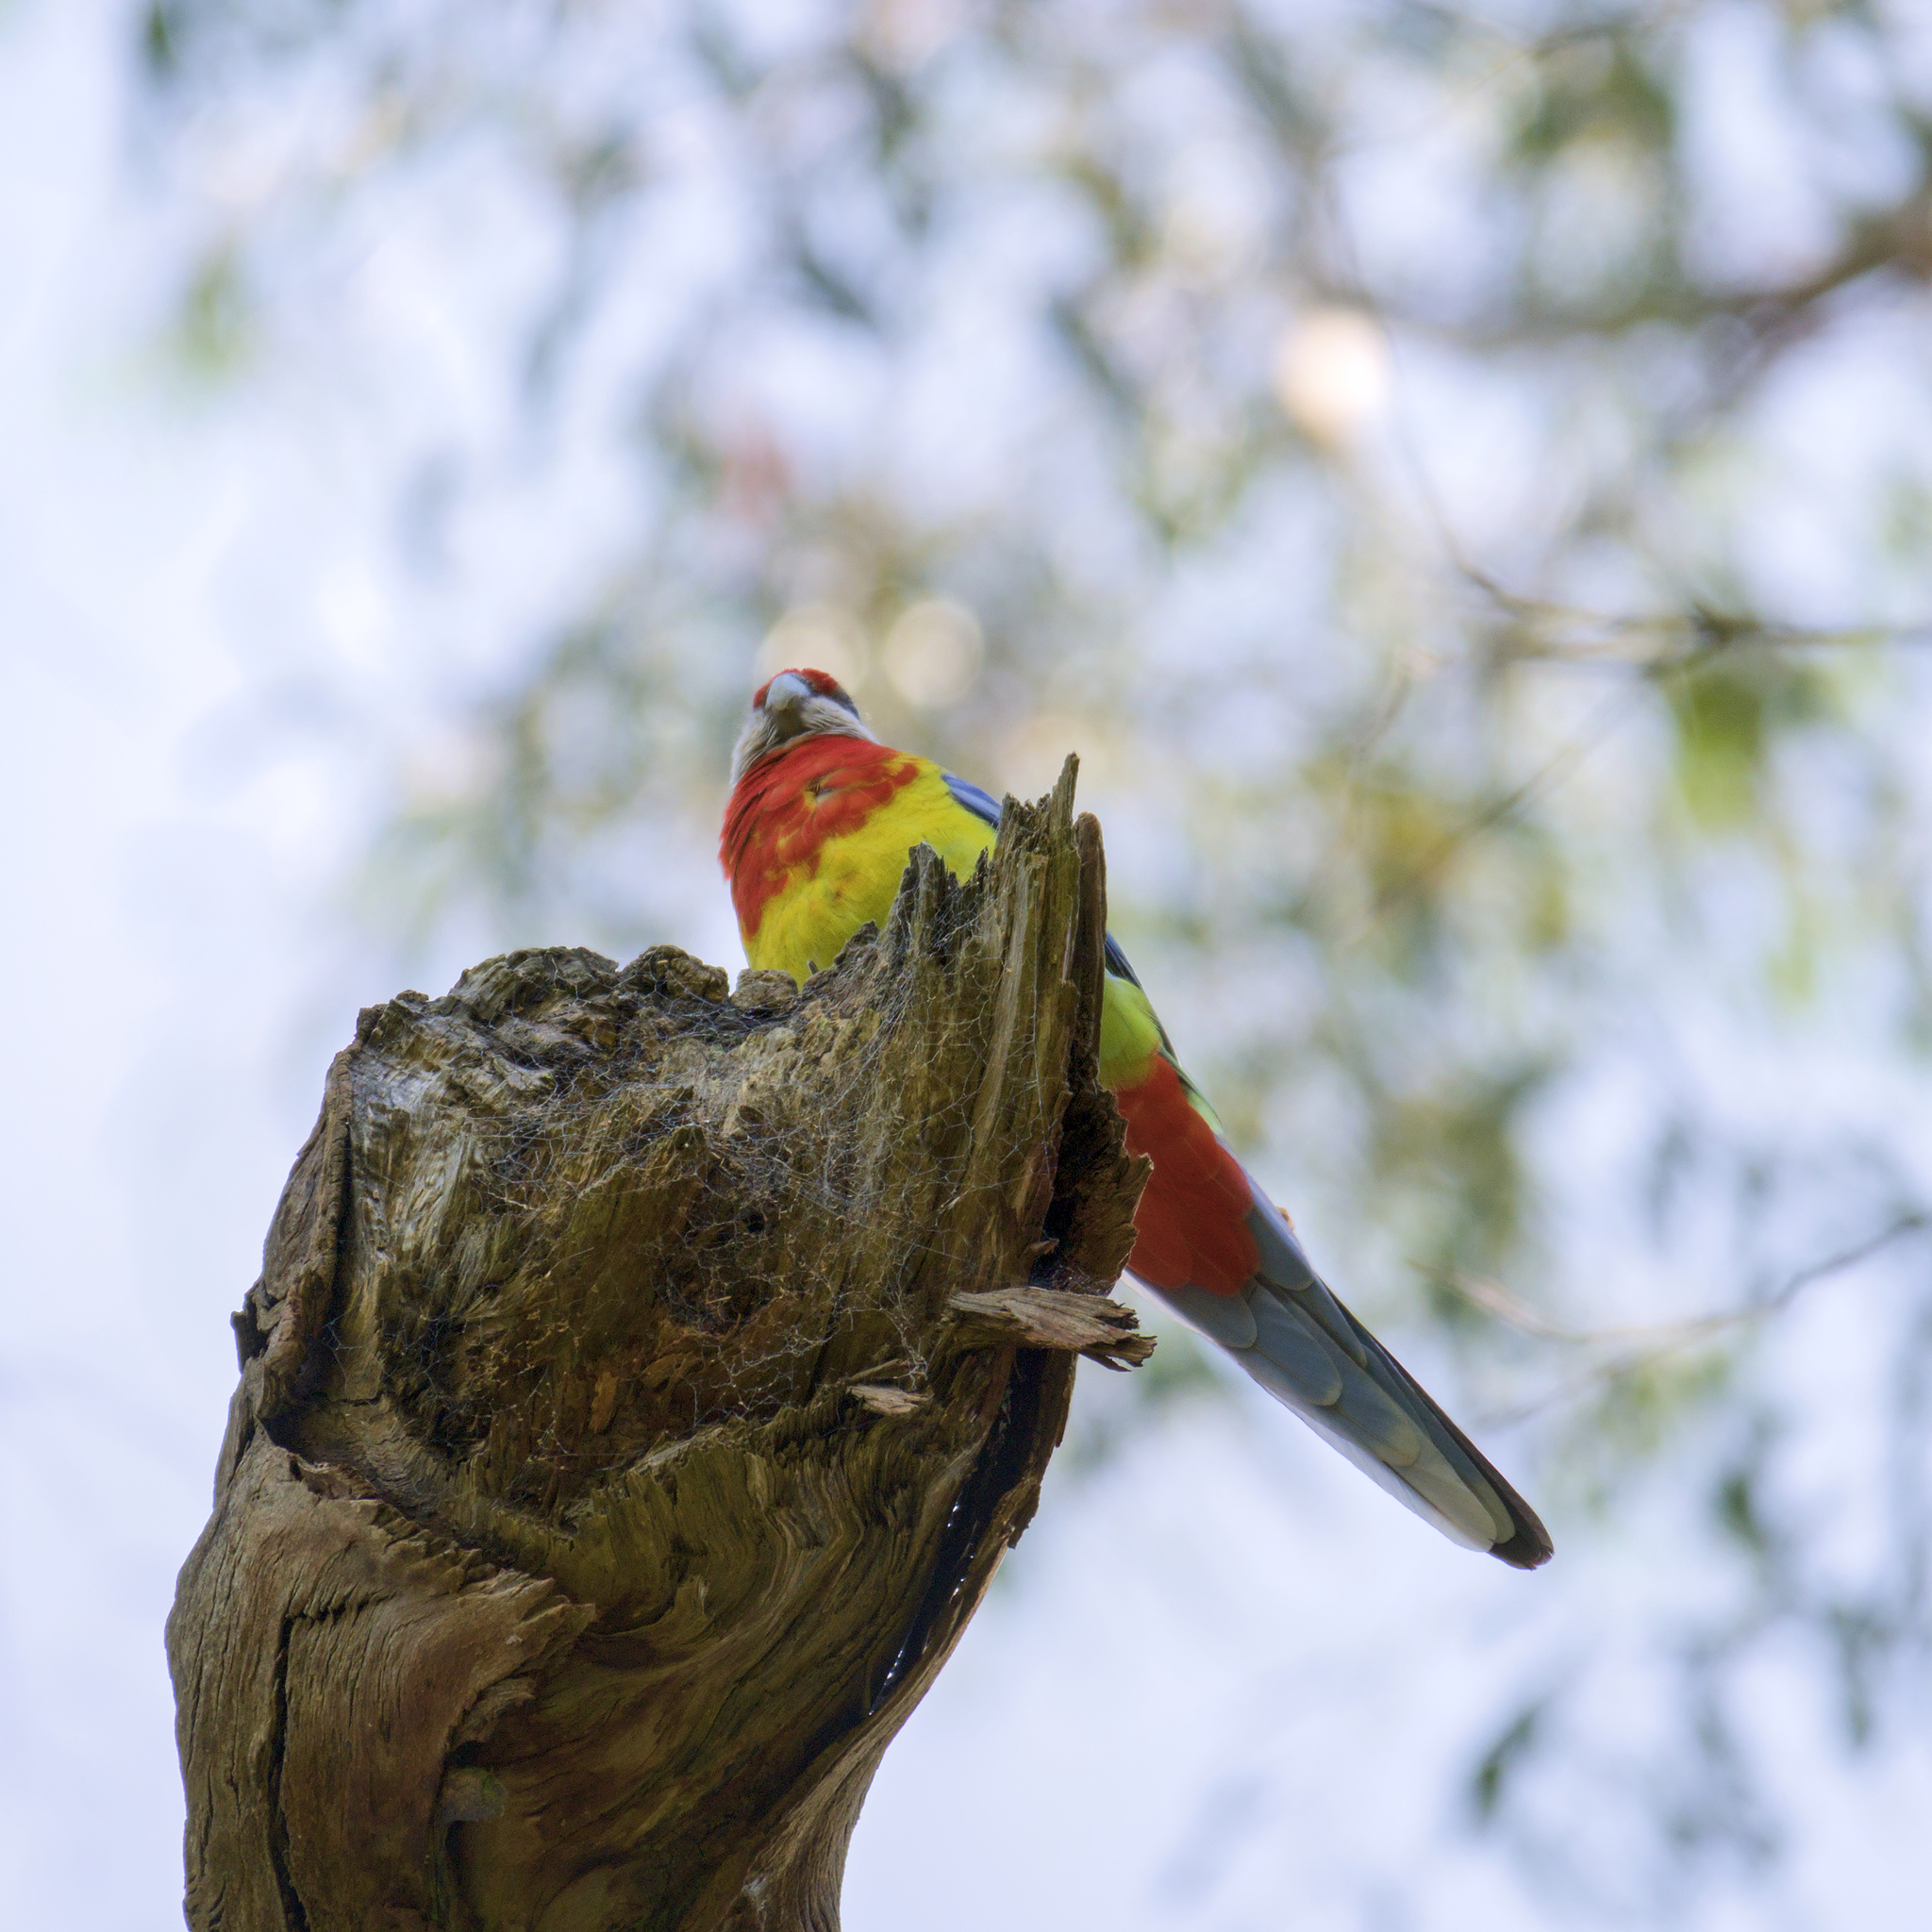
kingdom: Animalia
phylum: Chordata
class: Aves
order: Psittaciformes
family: Psittacidae
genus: Platycercus
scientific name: Platycercus eximius
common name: Eastern rosella
